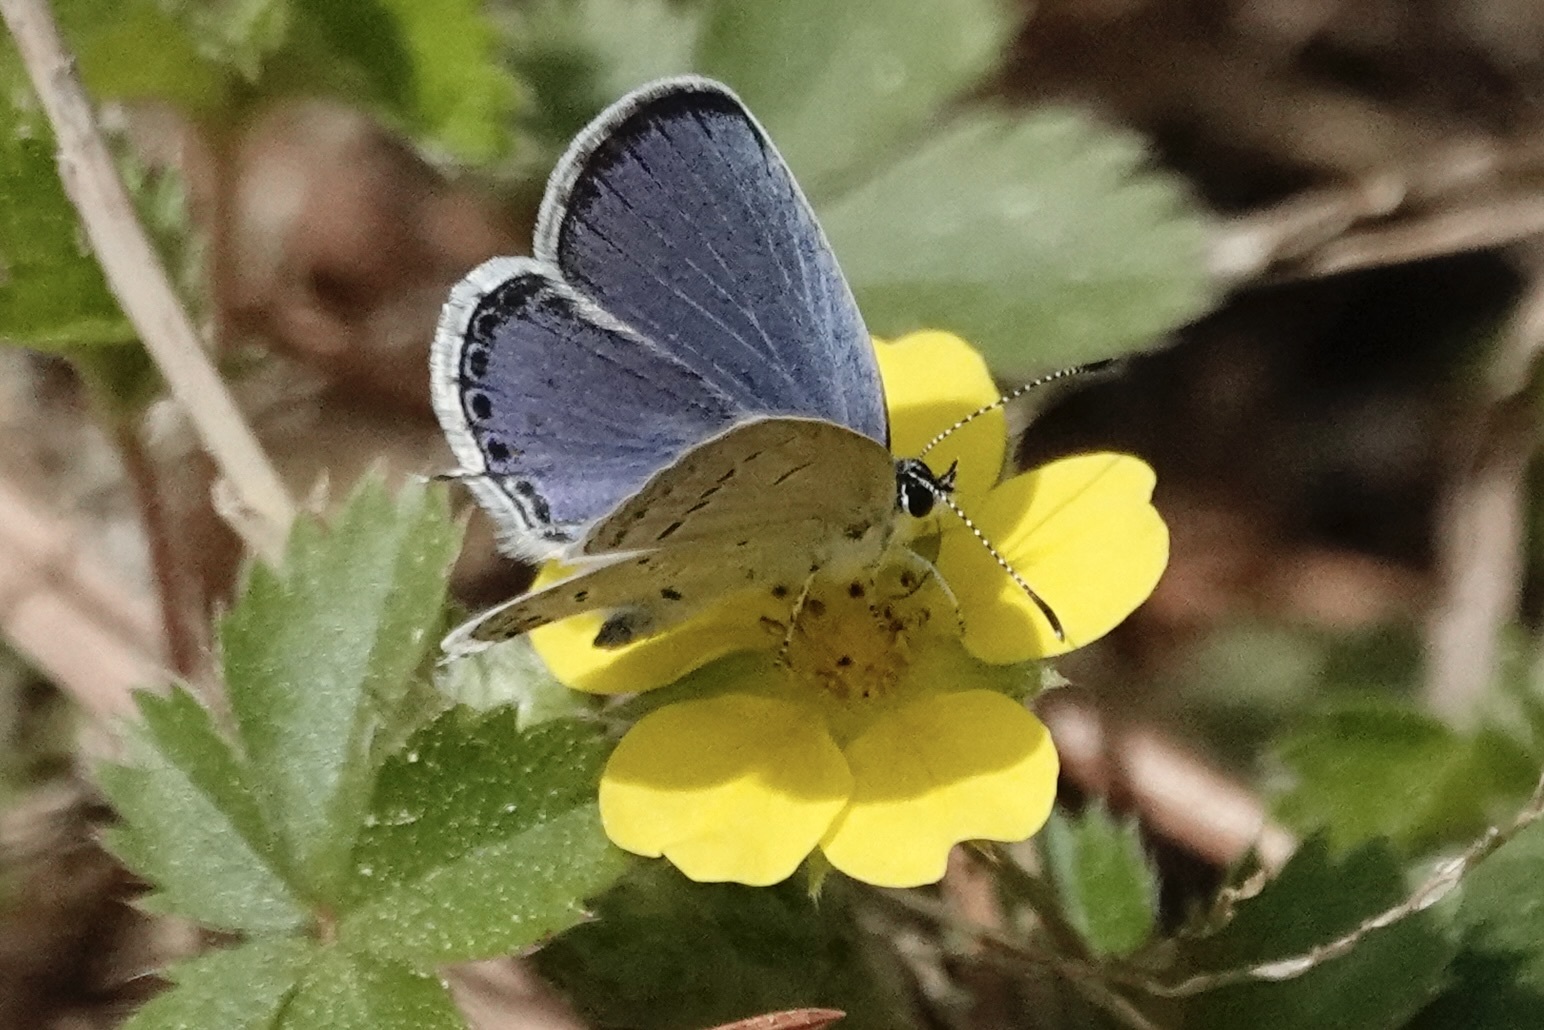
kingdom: Animalia
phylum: Arthropoda
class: Insecta
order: Lepidoptera
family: Lycaenidae
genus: Elkalyce
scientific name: Elkalyce comyntas
